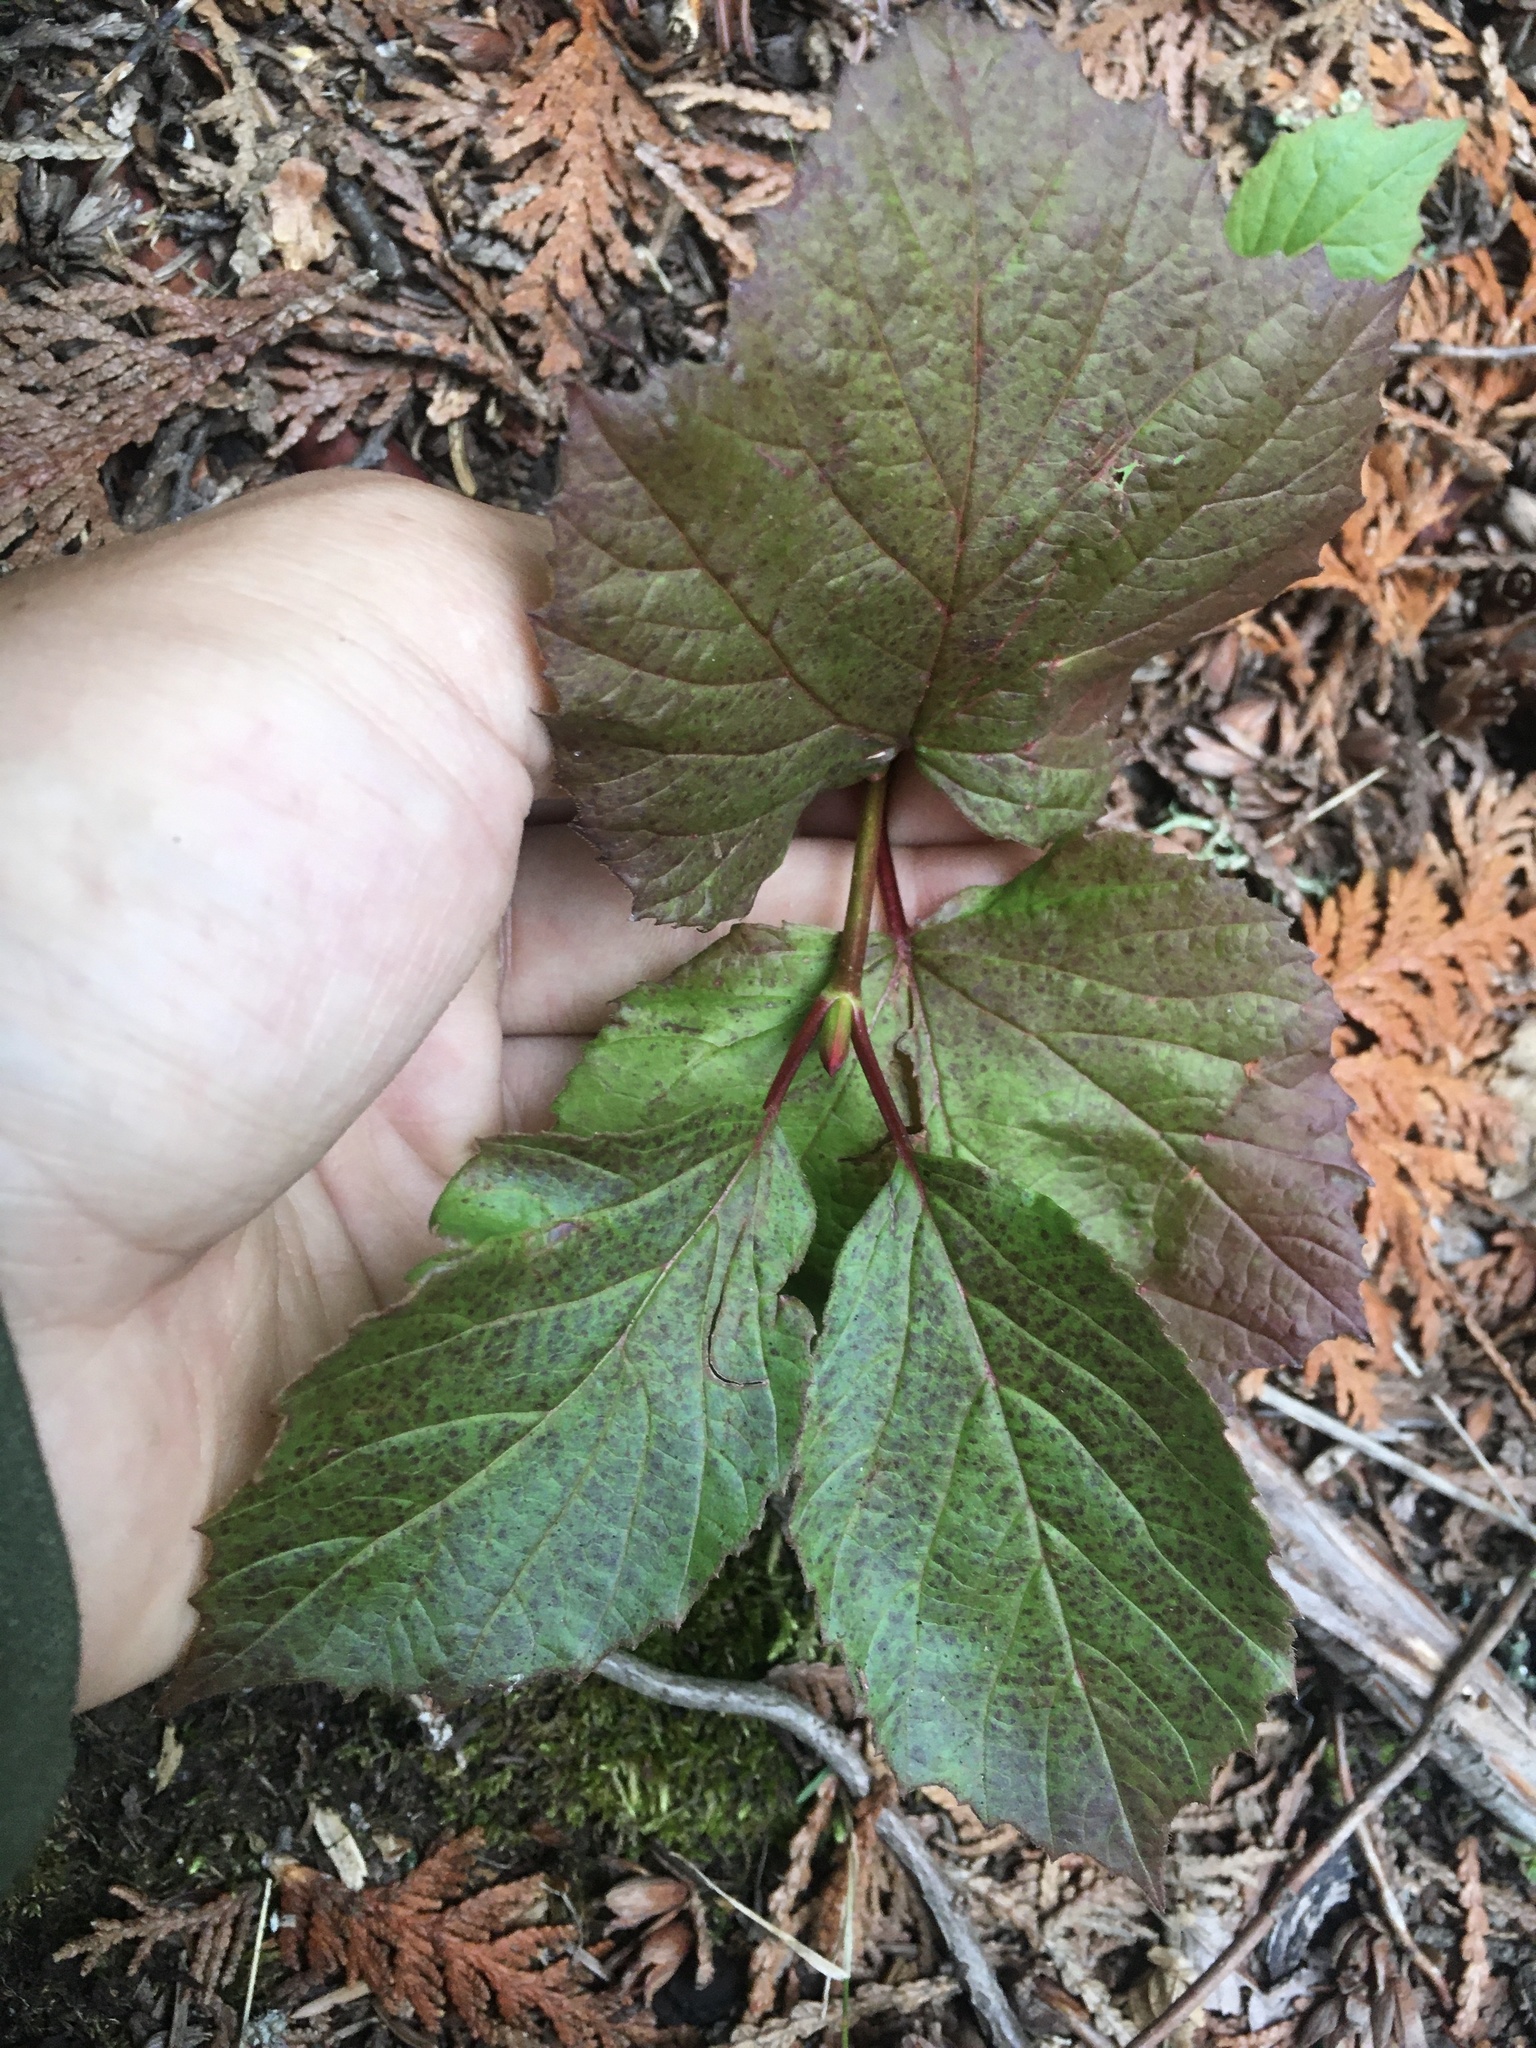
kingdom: Plantae
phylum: Tracheophyta
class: Magnoliopsida
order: Dipsacales
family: Viburnaceae
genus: Viburnum
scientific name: Viburnum edule
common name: Mooseberry
